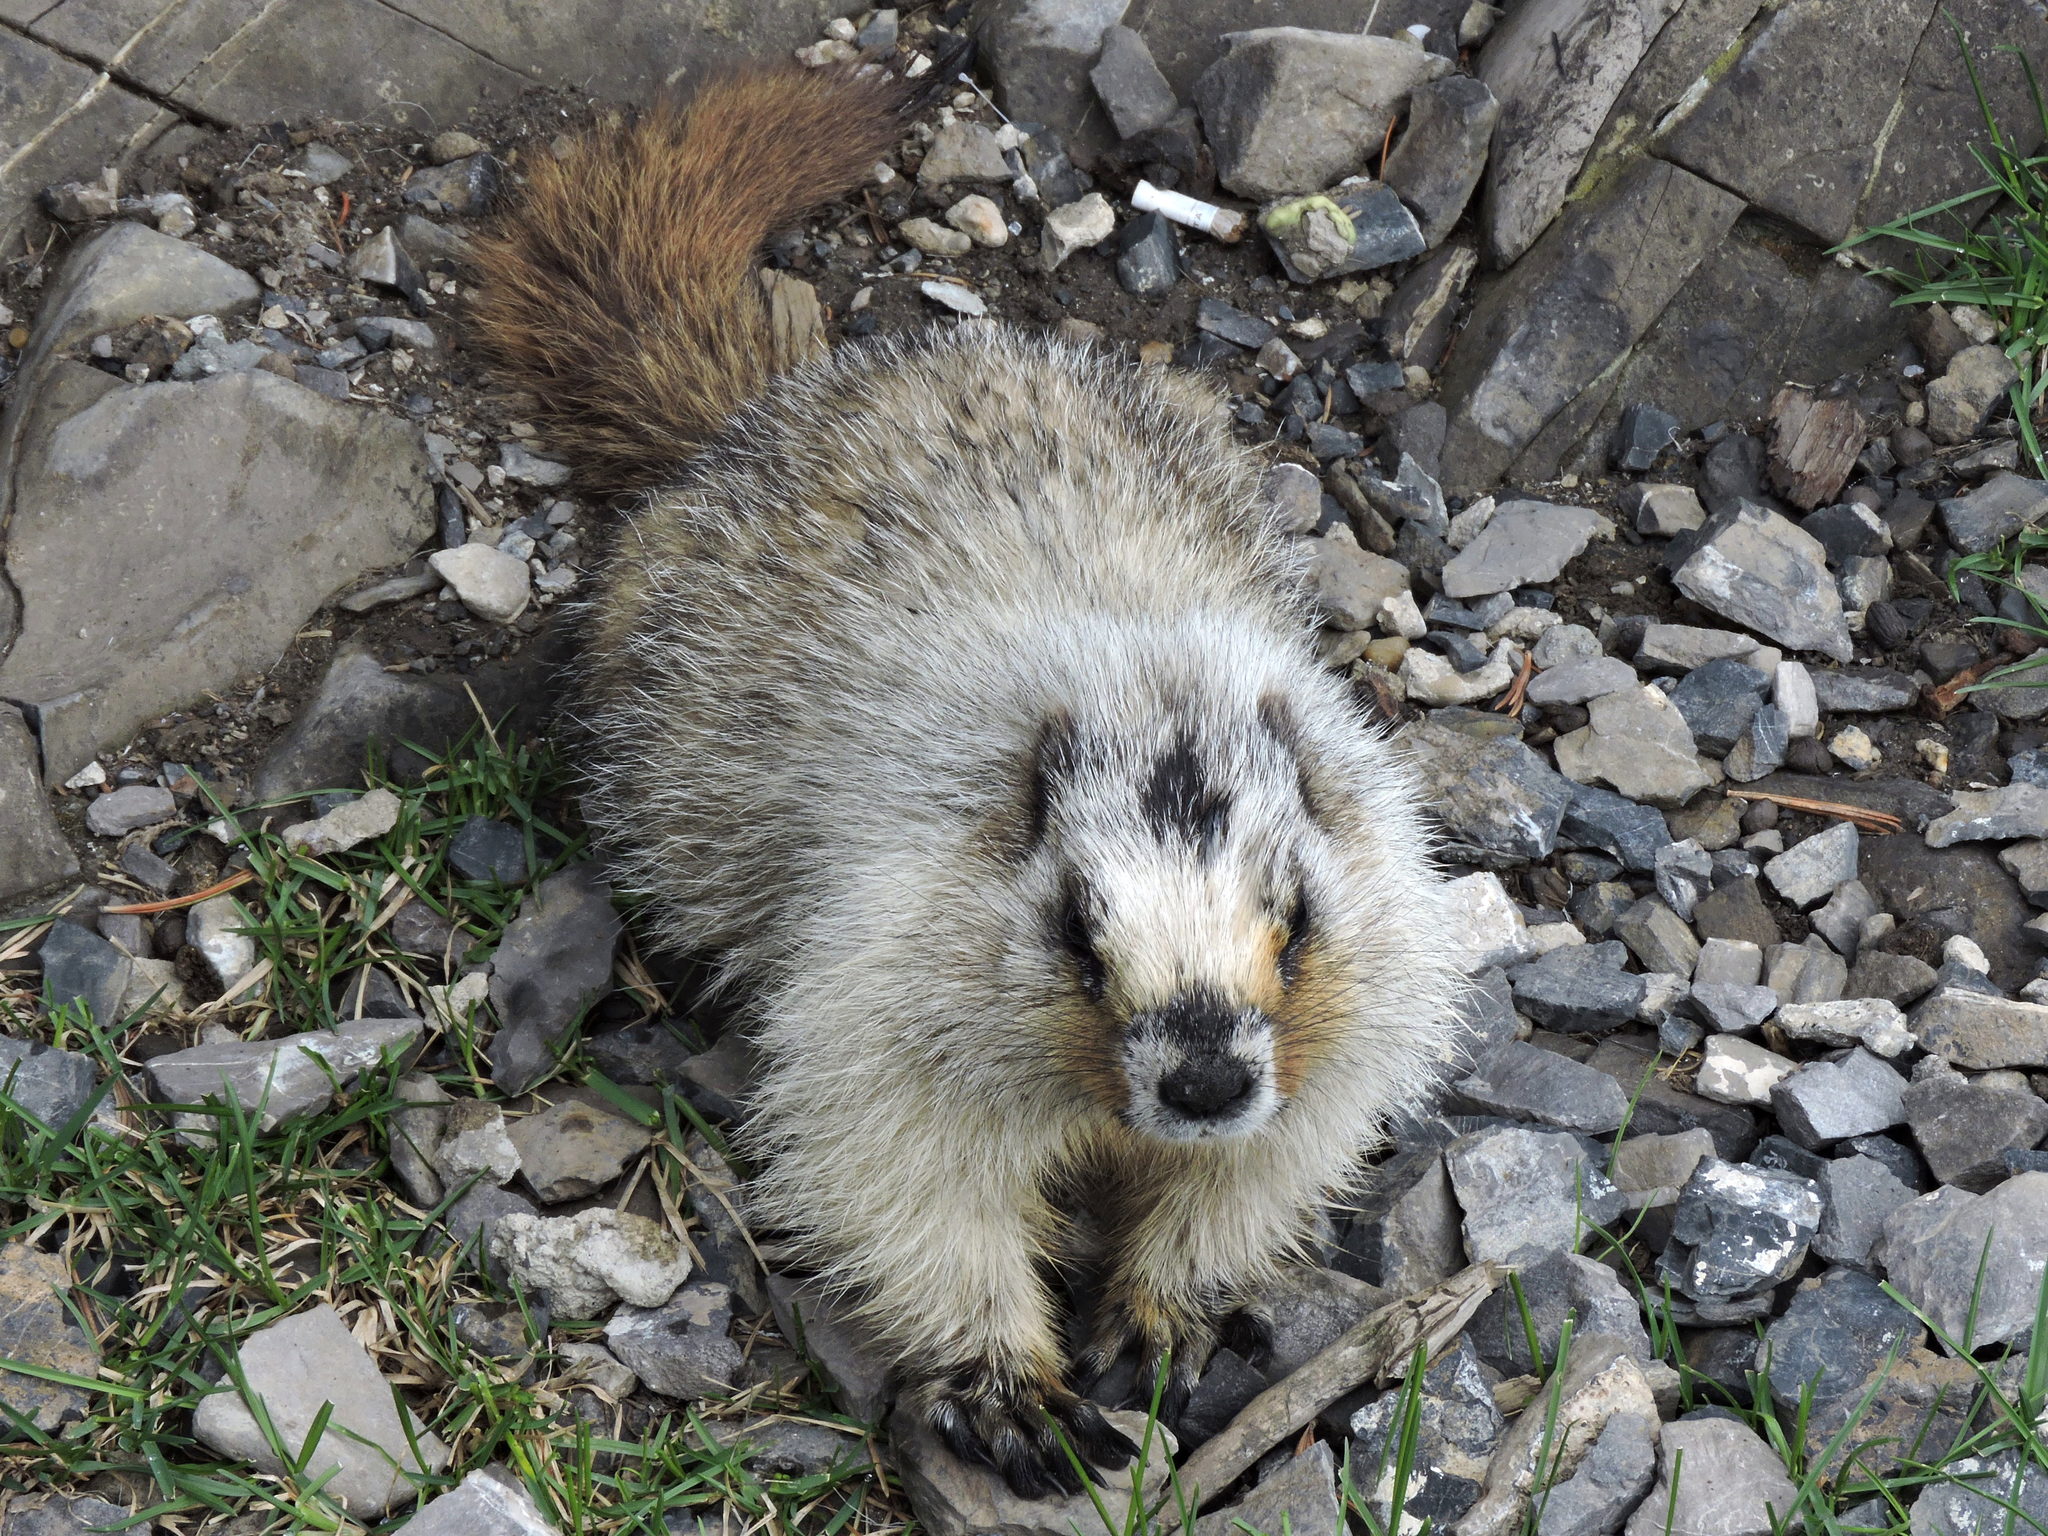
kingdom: Animalia
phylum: Chordata
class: Mammalia
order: Rodentia
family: Sciuridae
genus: Marmota
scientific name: Marmota caligata
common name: Hoary marmot
